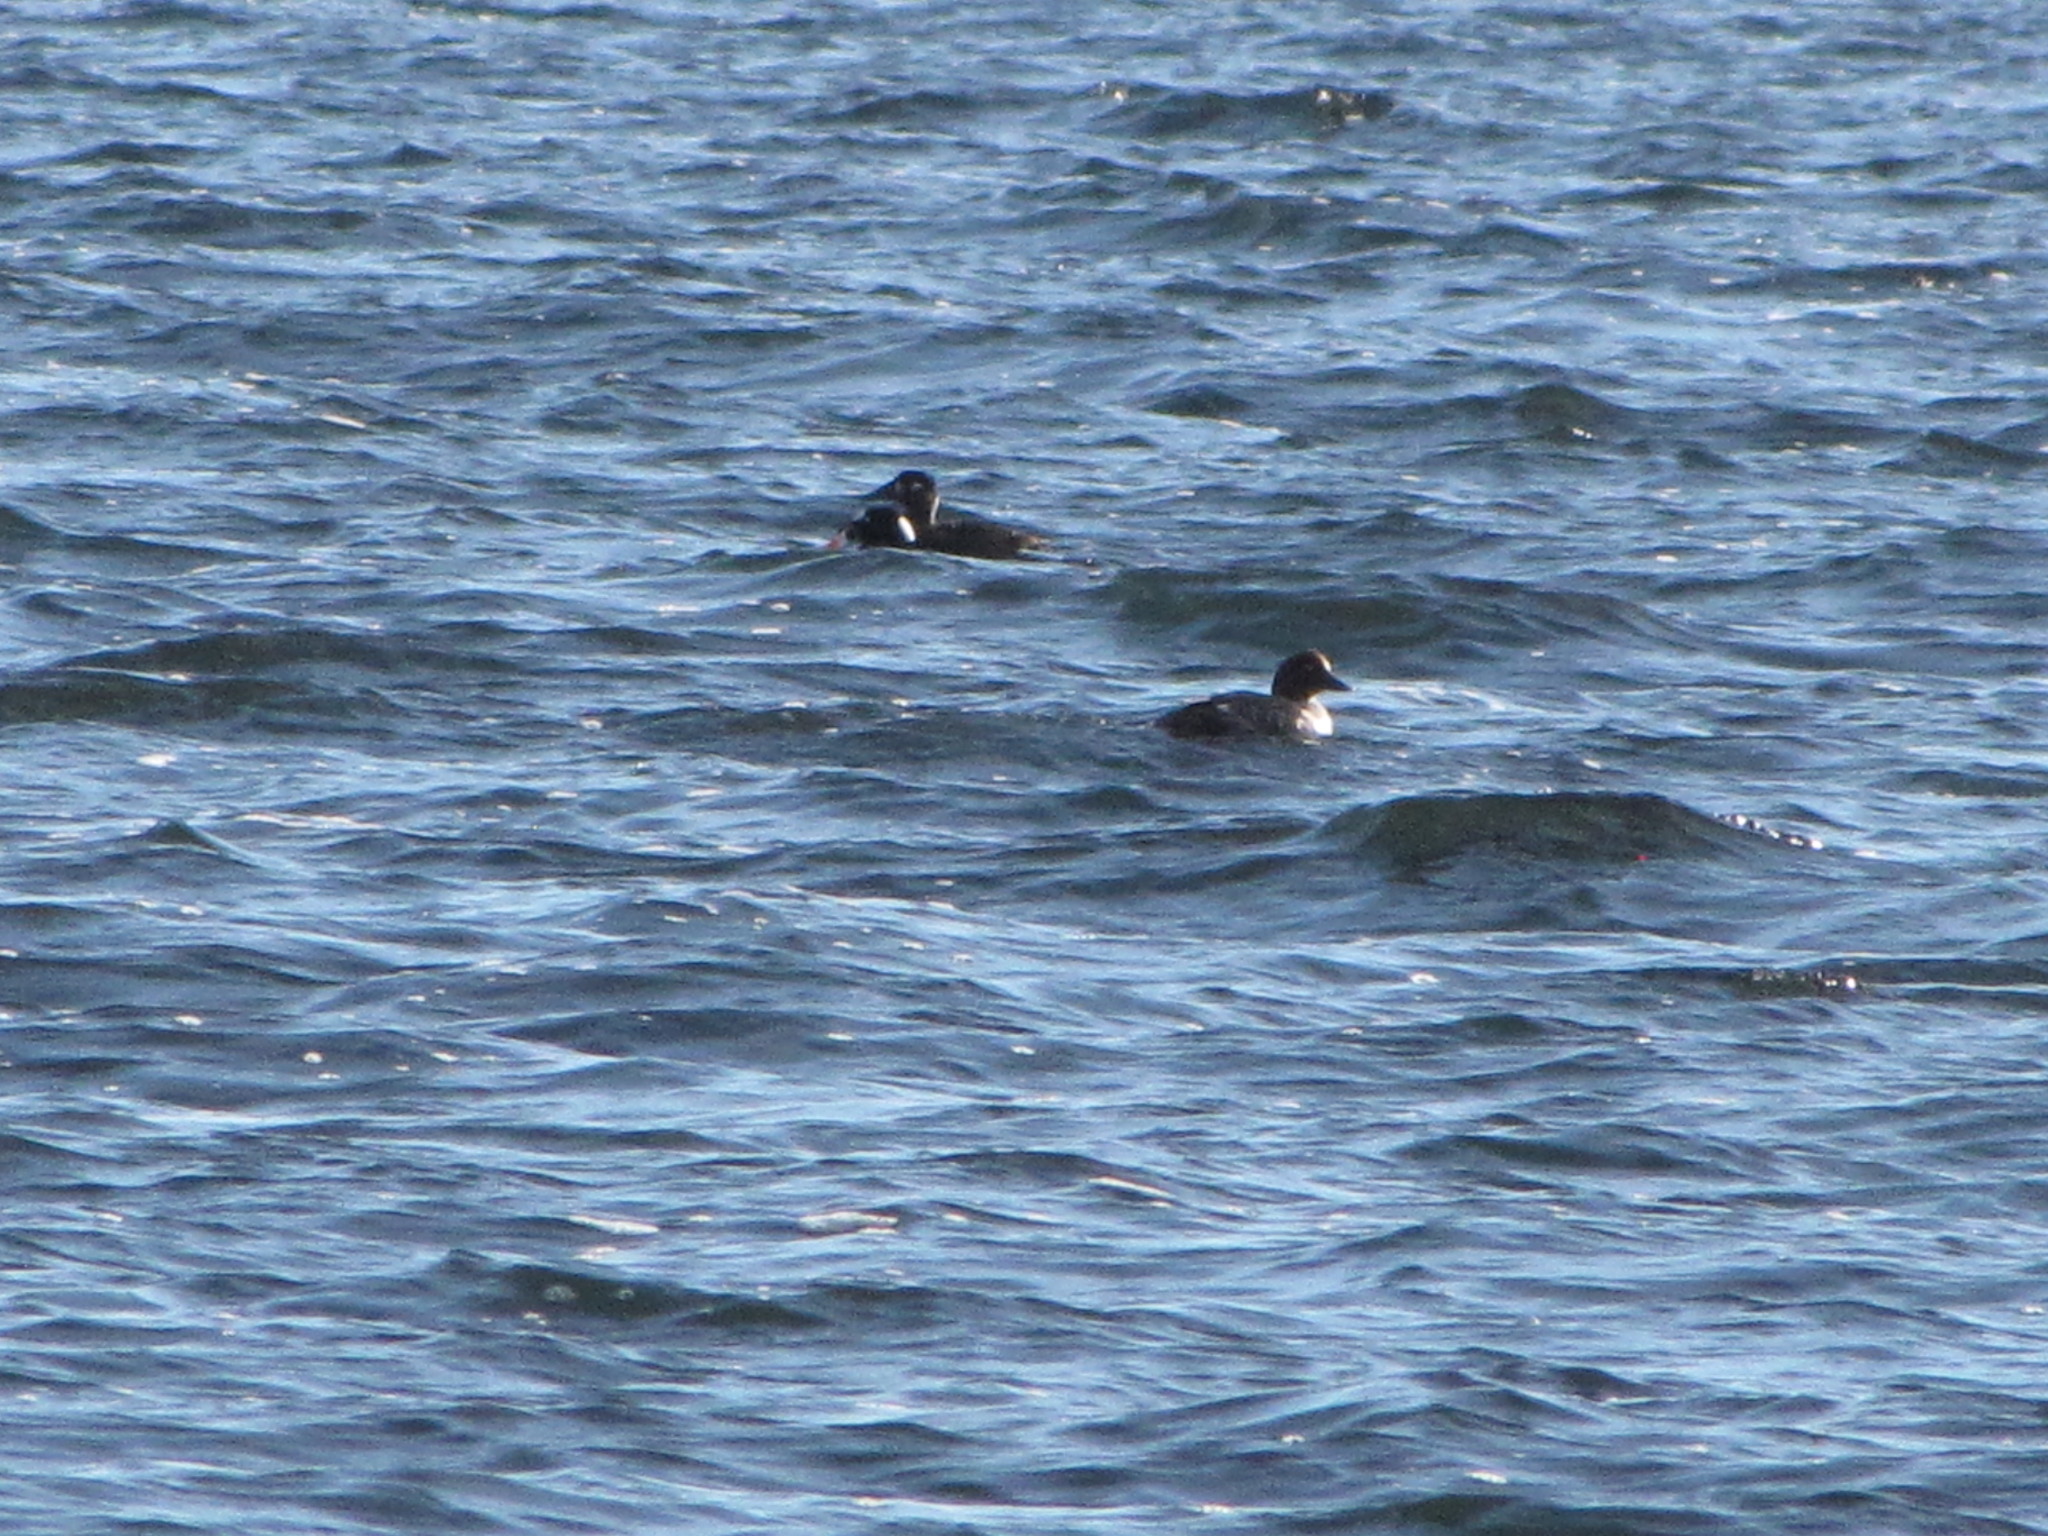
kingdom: Animalia
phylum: Chordata
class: Aves
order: Anseriformes
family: Anatidae
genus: Melanitta
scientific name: Melanitta perspicillata
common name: Surf scoter
